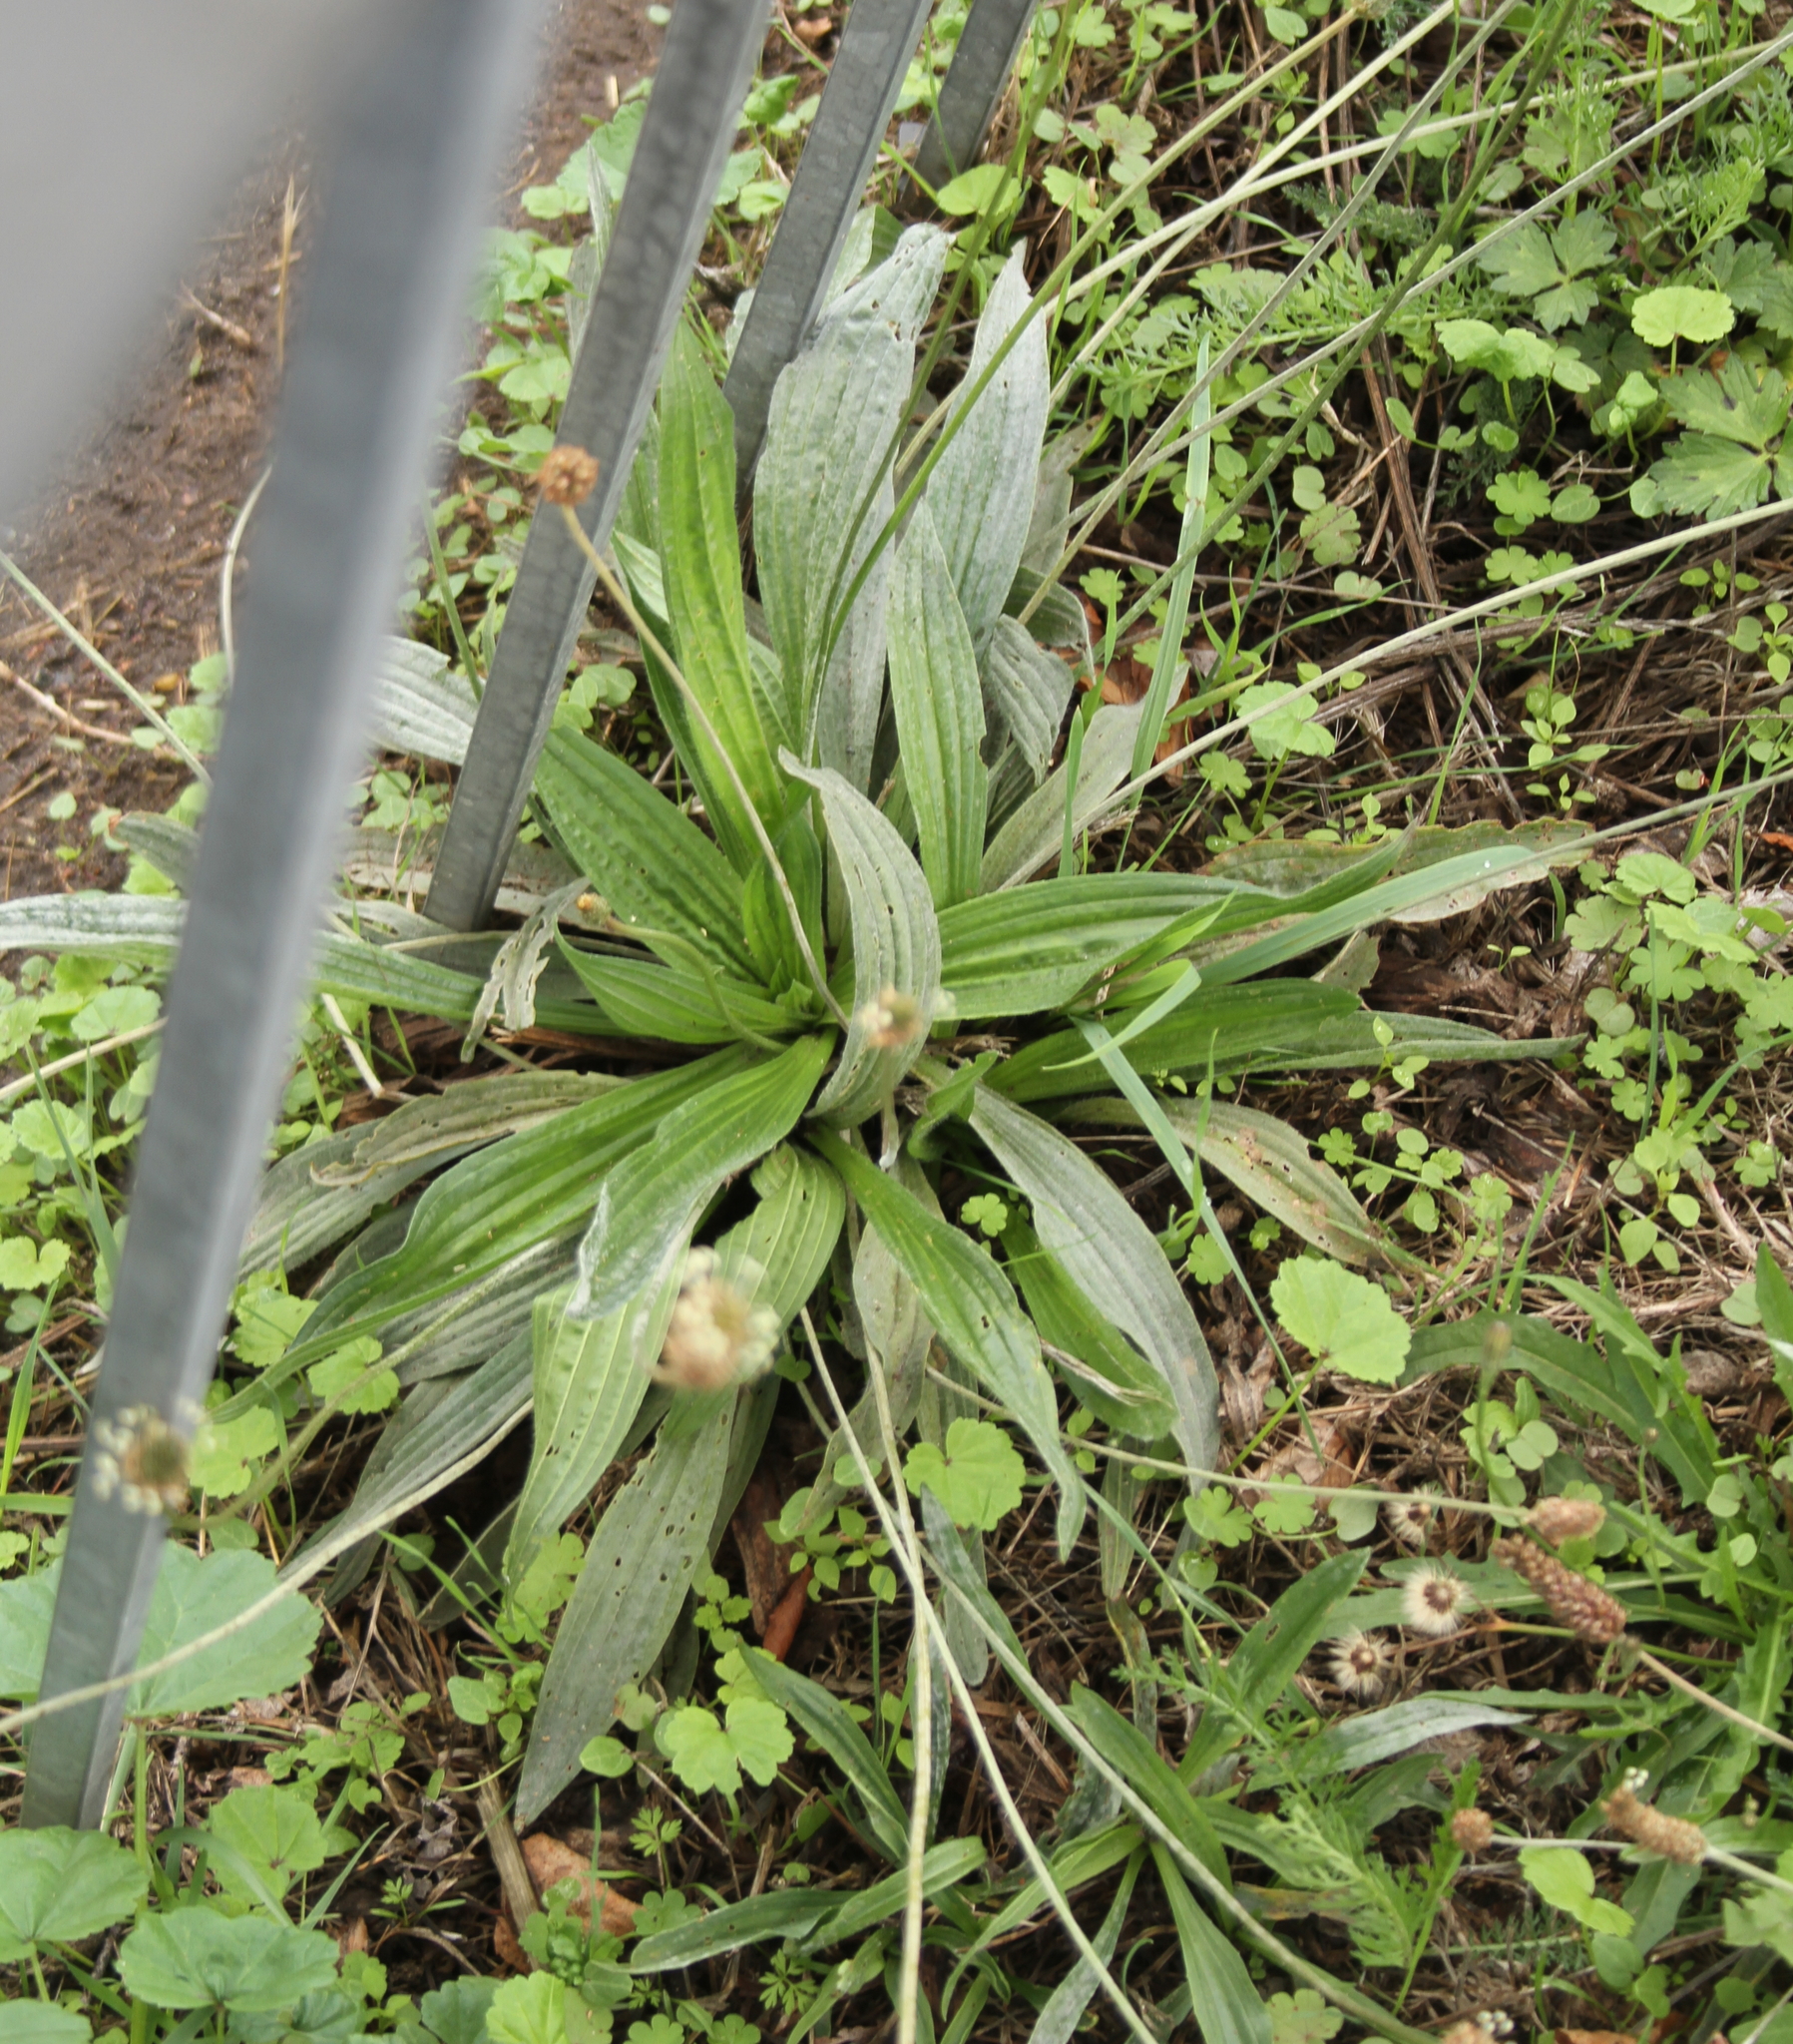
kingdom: Plantae
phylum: Tracheophyta
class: Magnoliopsida
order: Lamiales
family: Plantaginaceae
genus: Plantago
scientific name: Plantago lanceolata
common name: Ribwort plantain
